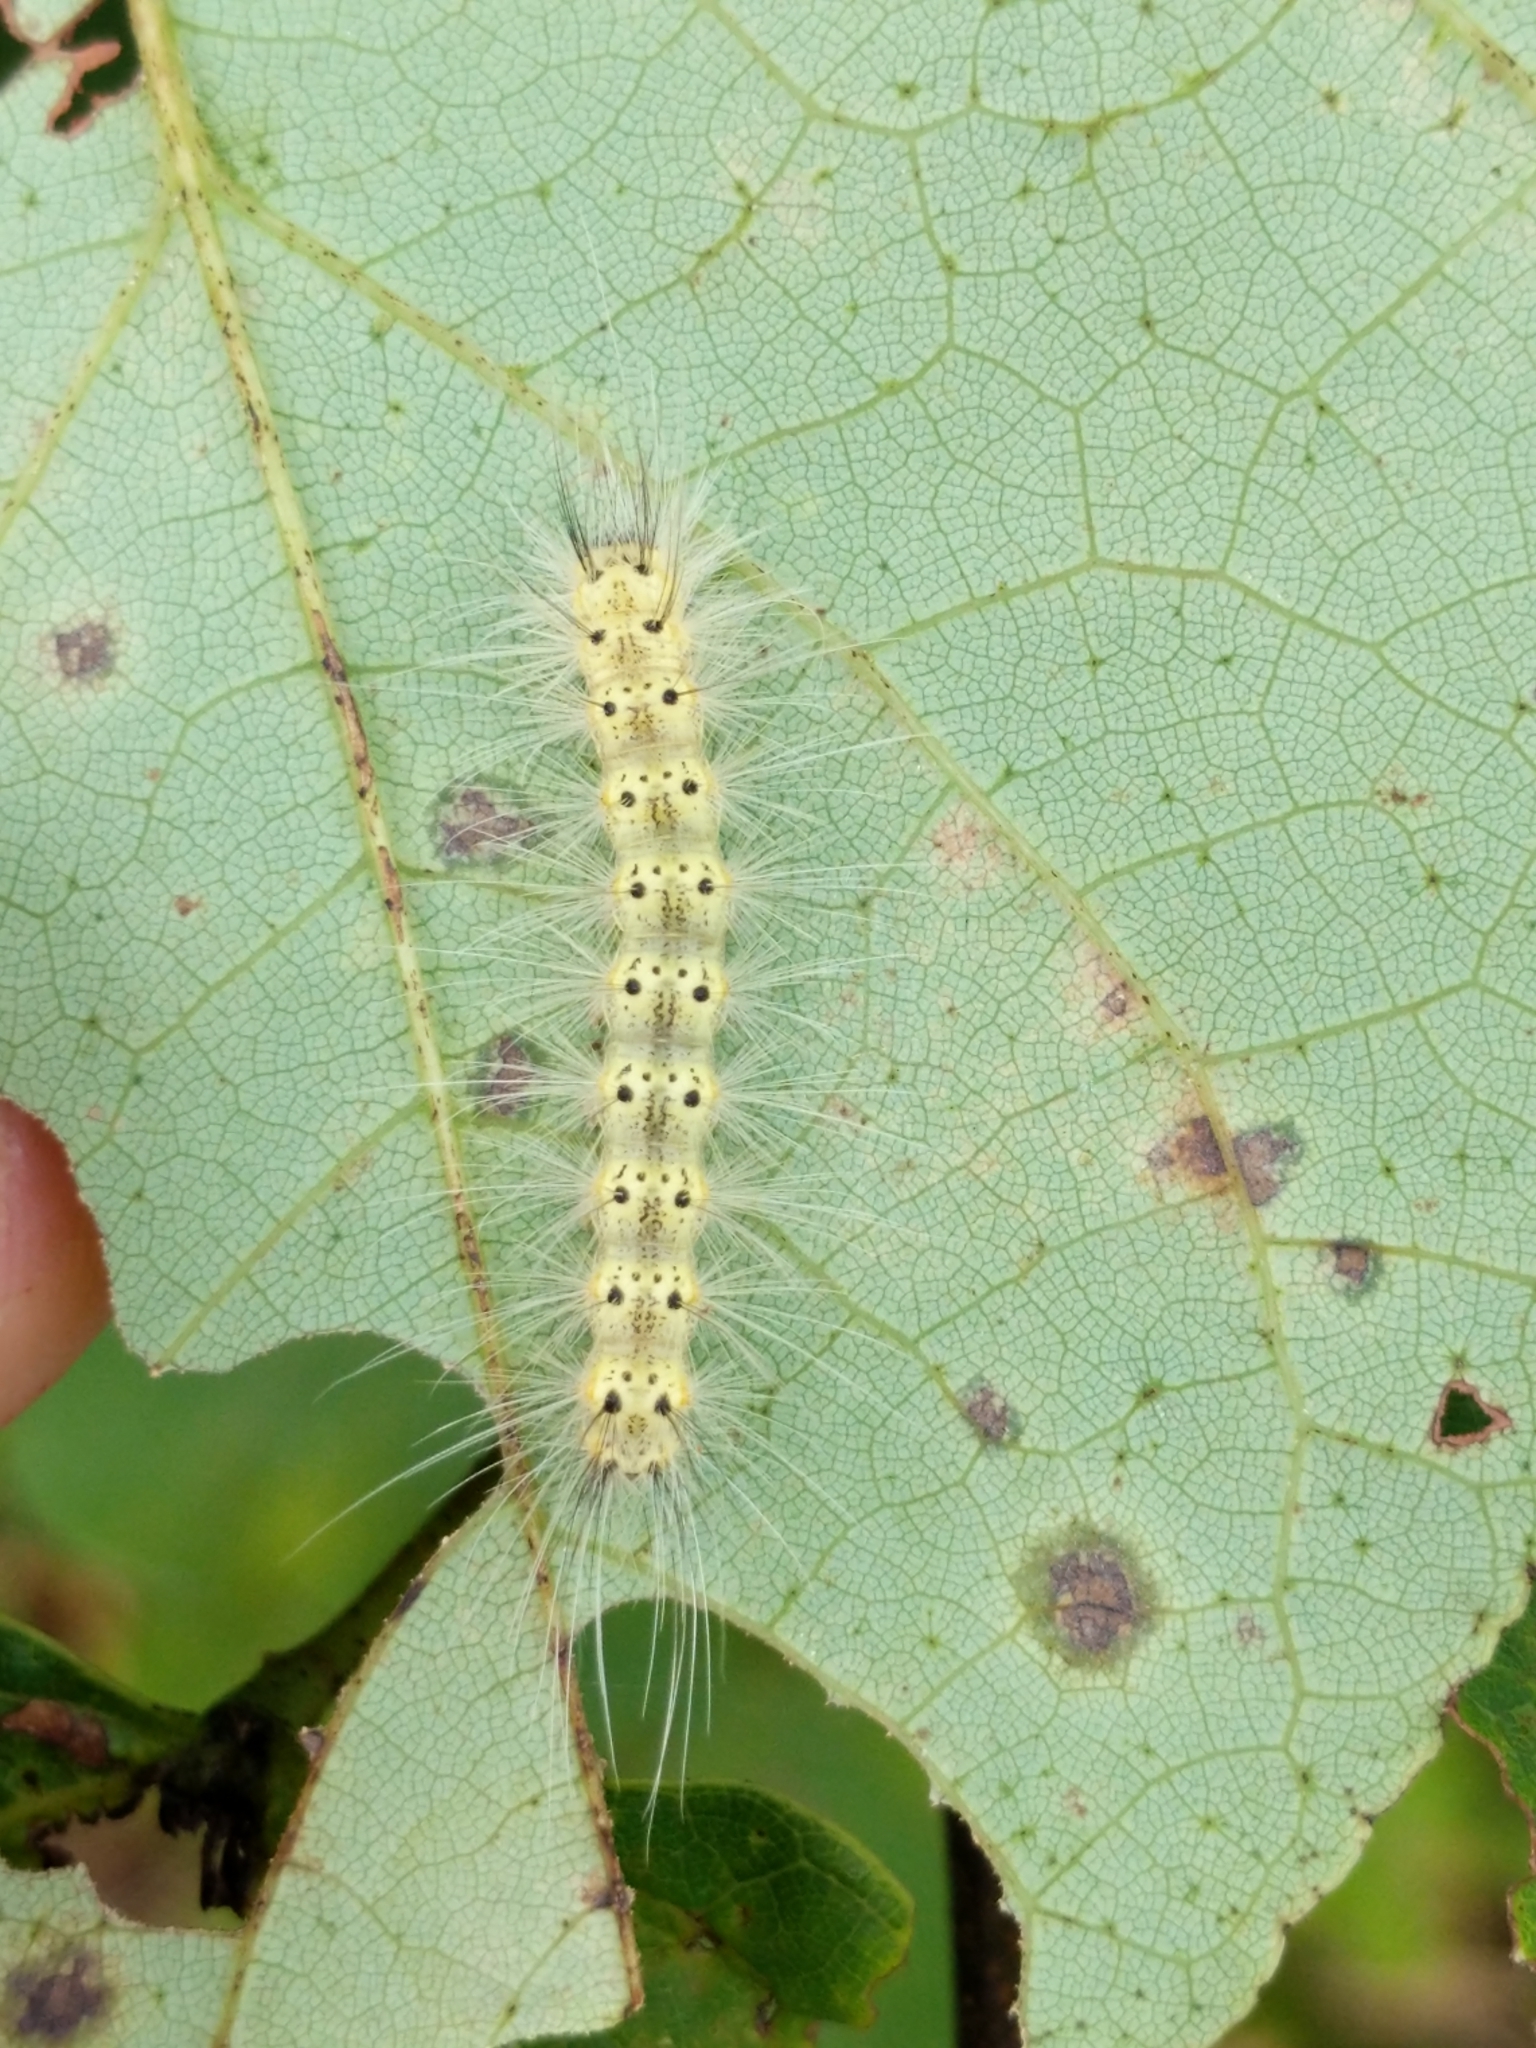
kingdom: Animalia
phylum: Arthropoda
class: Insecta
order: Lepidoptera
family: Erebidae
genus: Hyphantria
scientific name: Hyphantria cunea
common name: American white moth
